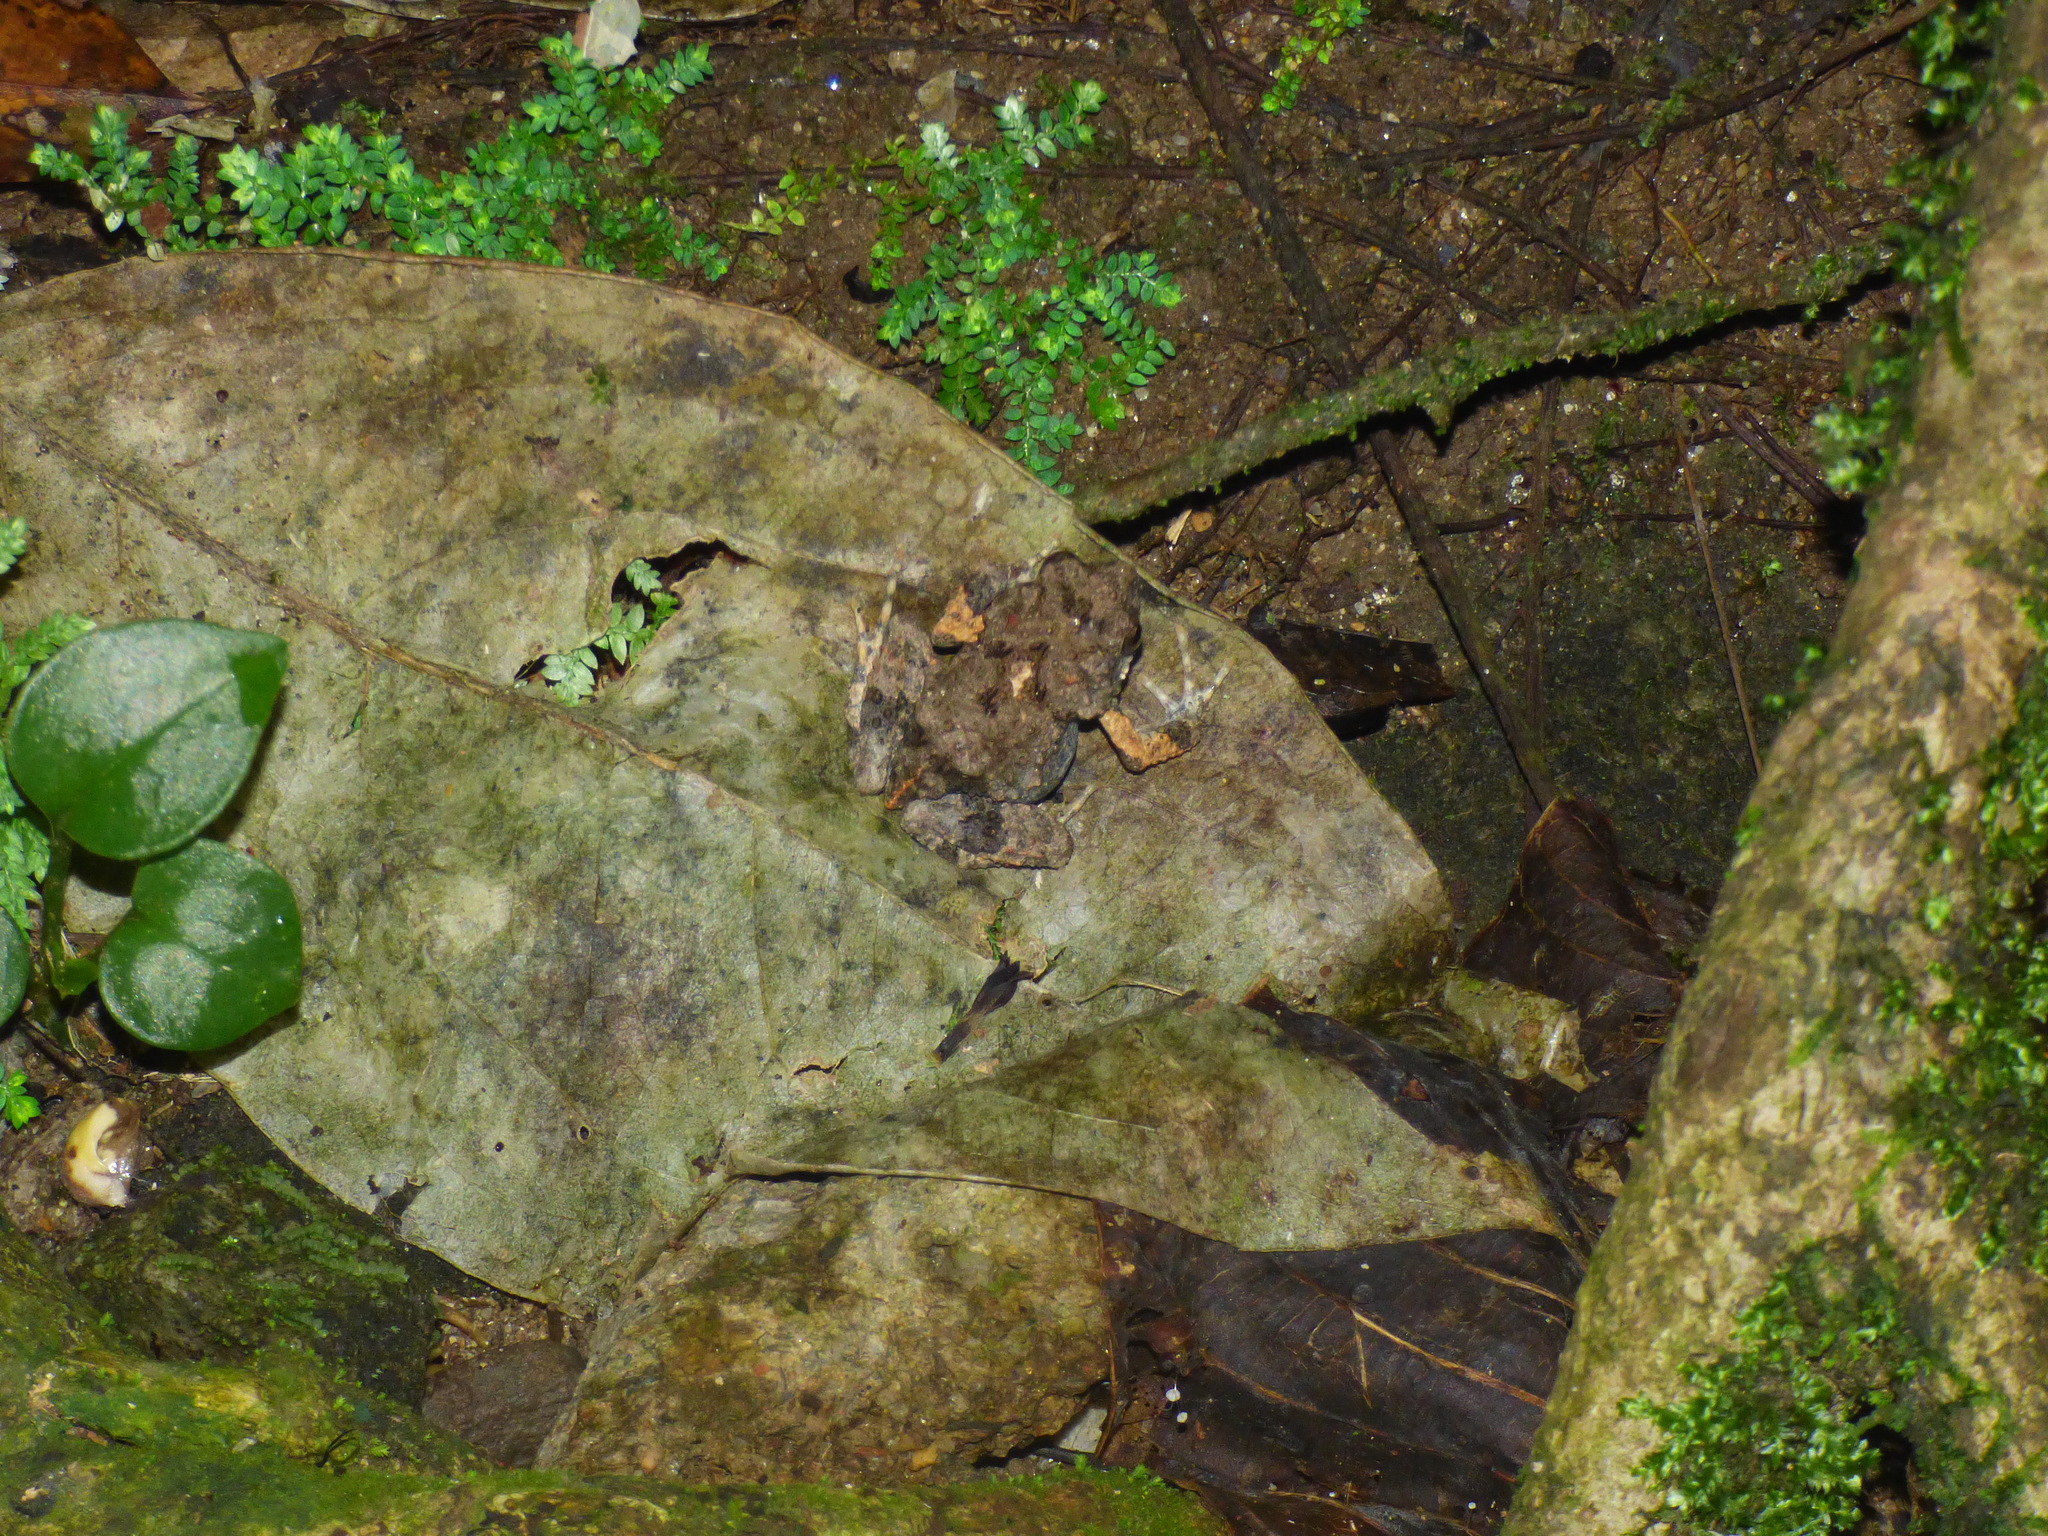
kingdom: Animalia
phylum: Chordata
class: Amphibia
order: Anura
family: Leptodactylidae
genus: Engystomops
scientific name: Engystomops pustulosus
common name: Tungara frog
